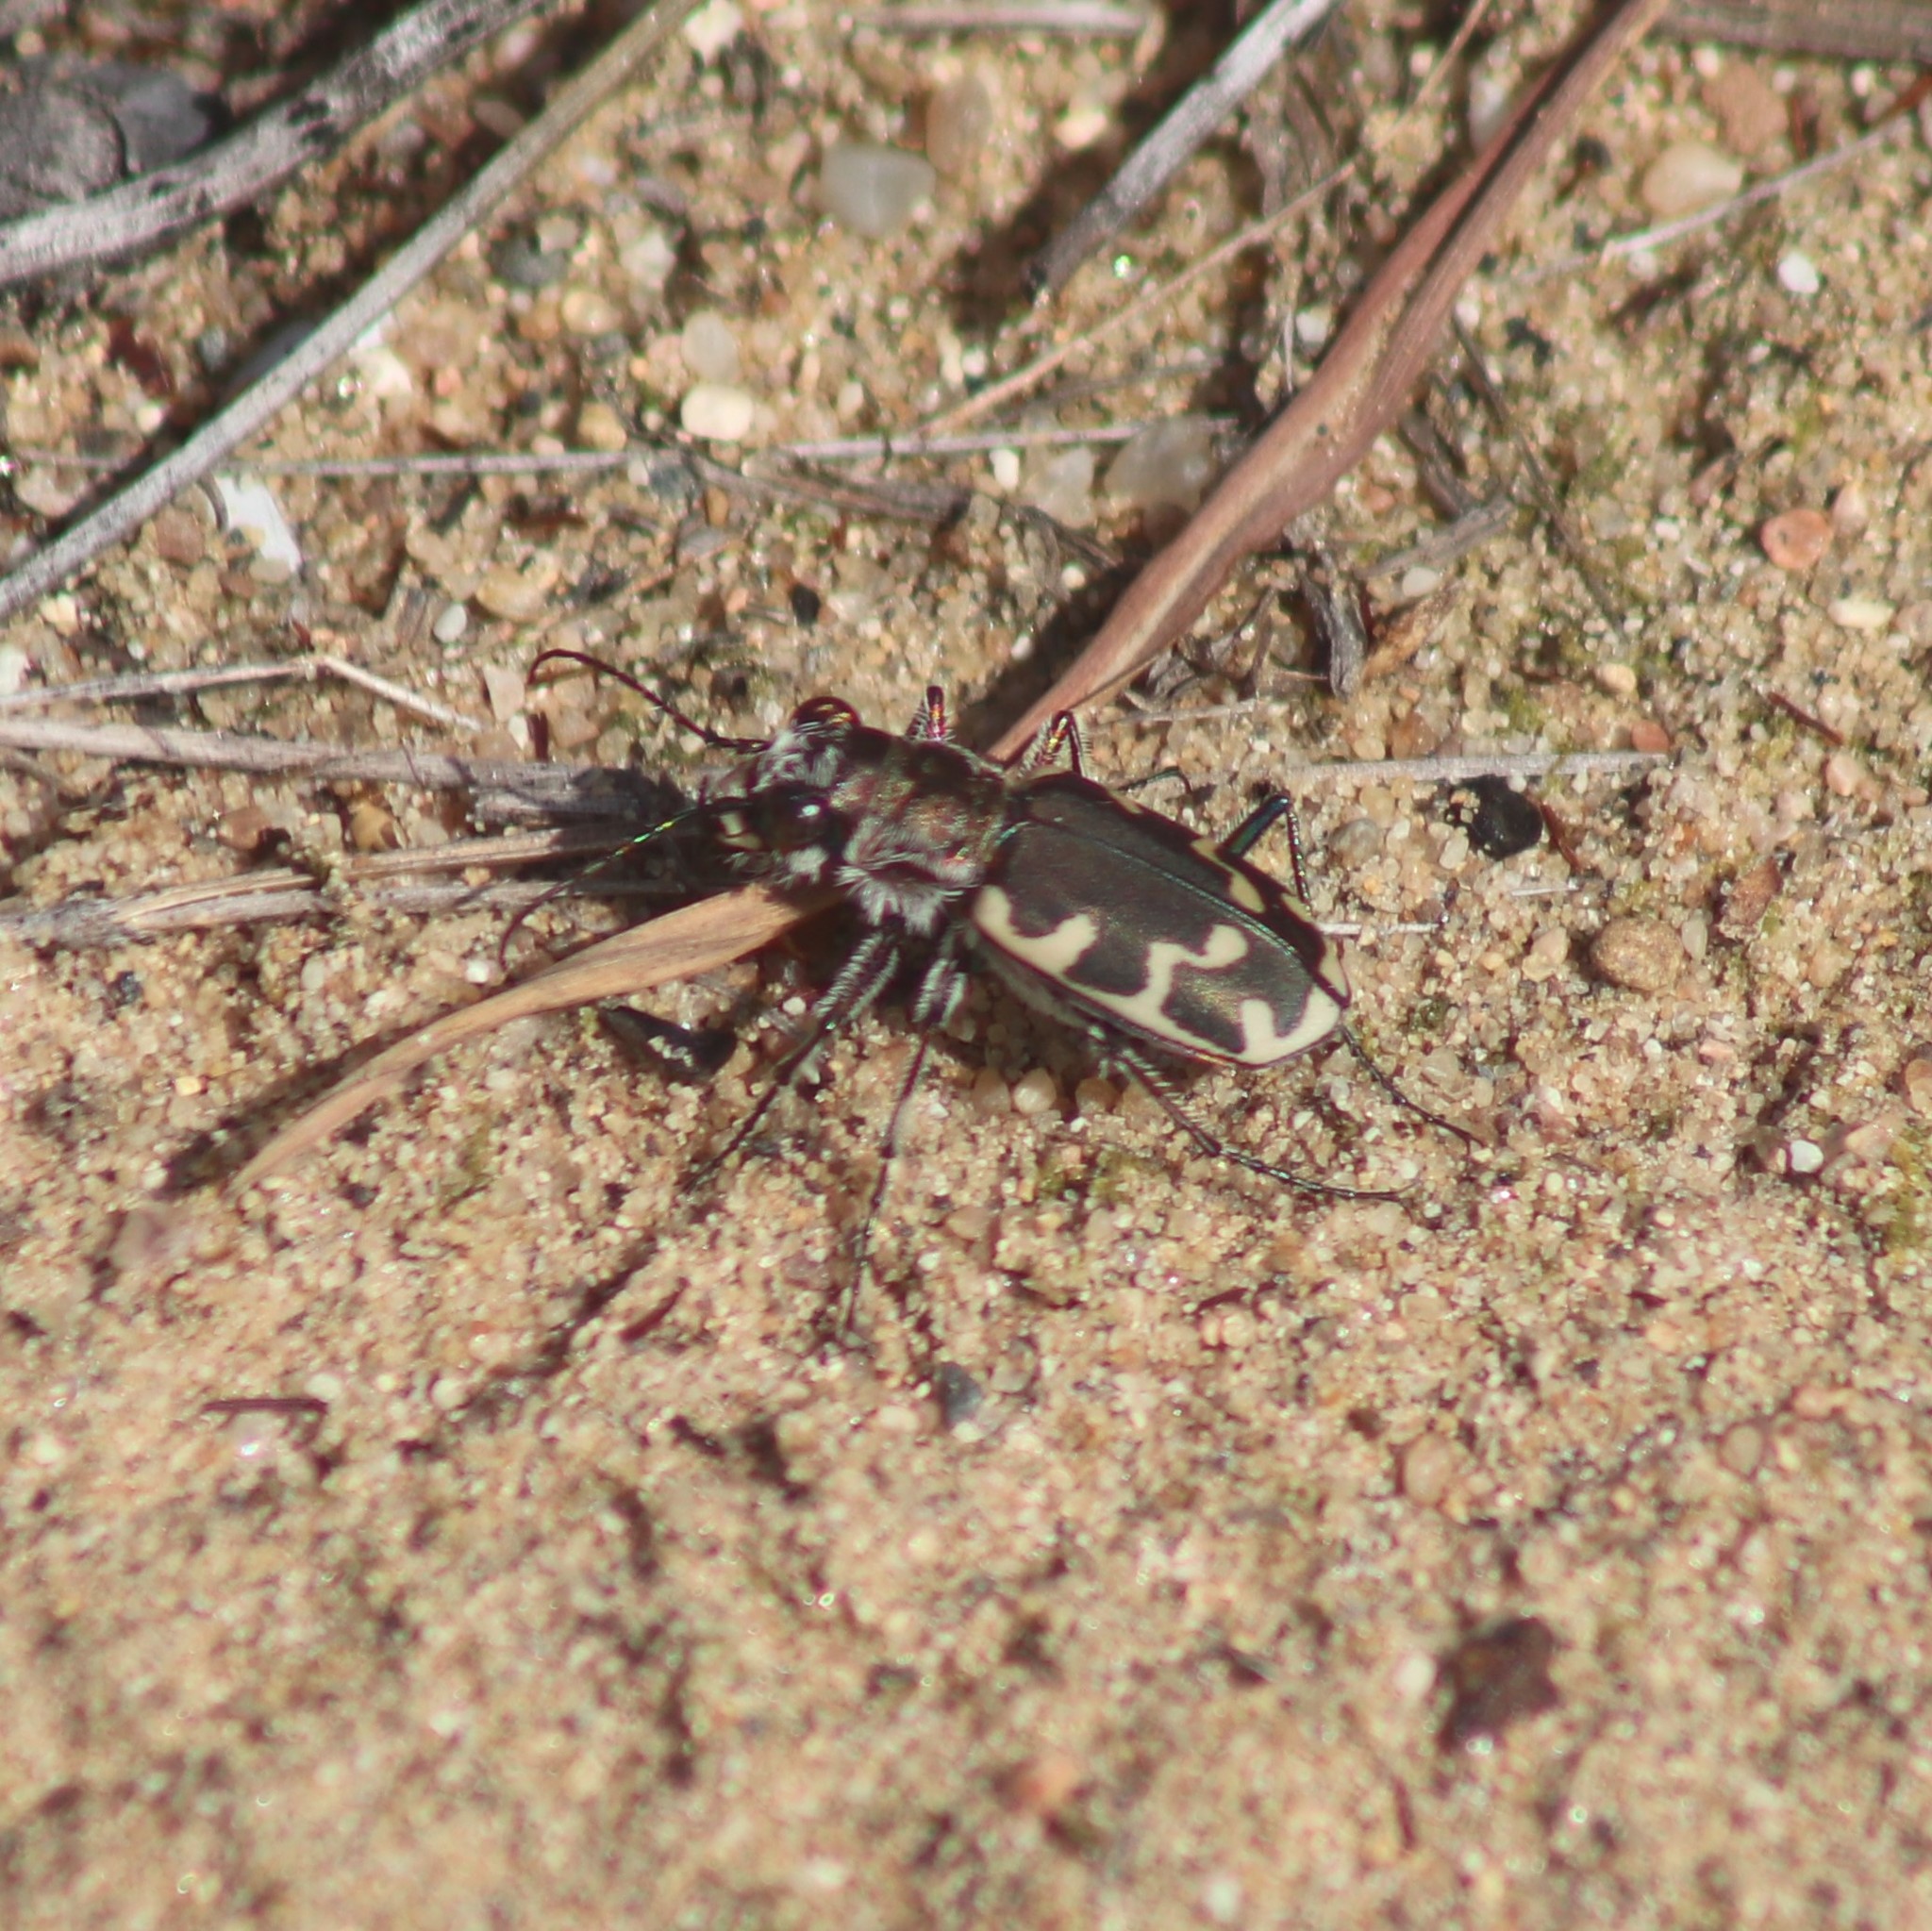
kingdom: Animalia
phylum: Arthropoda
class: Insecta
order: Coleoptera
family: Carabidae
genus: Cicindela
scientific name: Cicindela formosa
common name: Big sand tiger beetle
